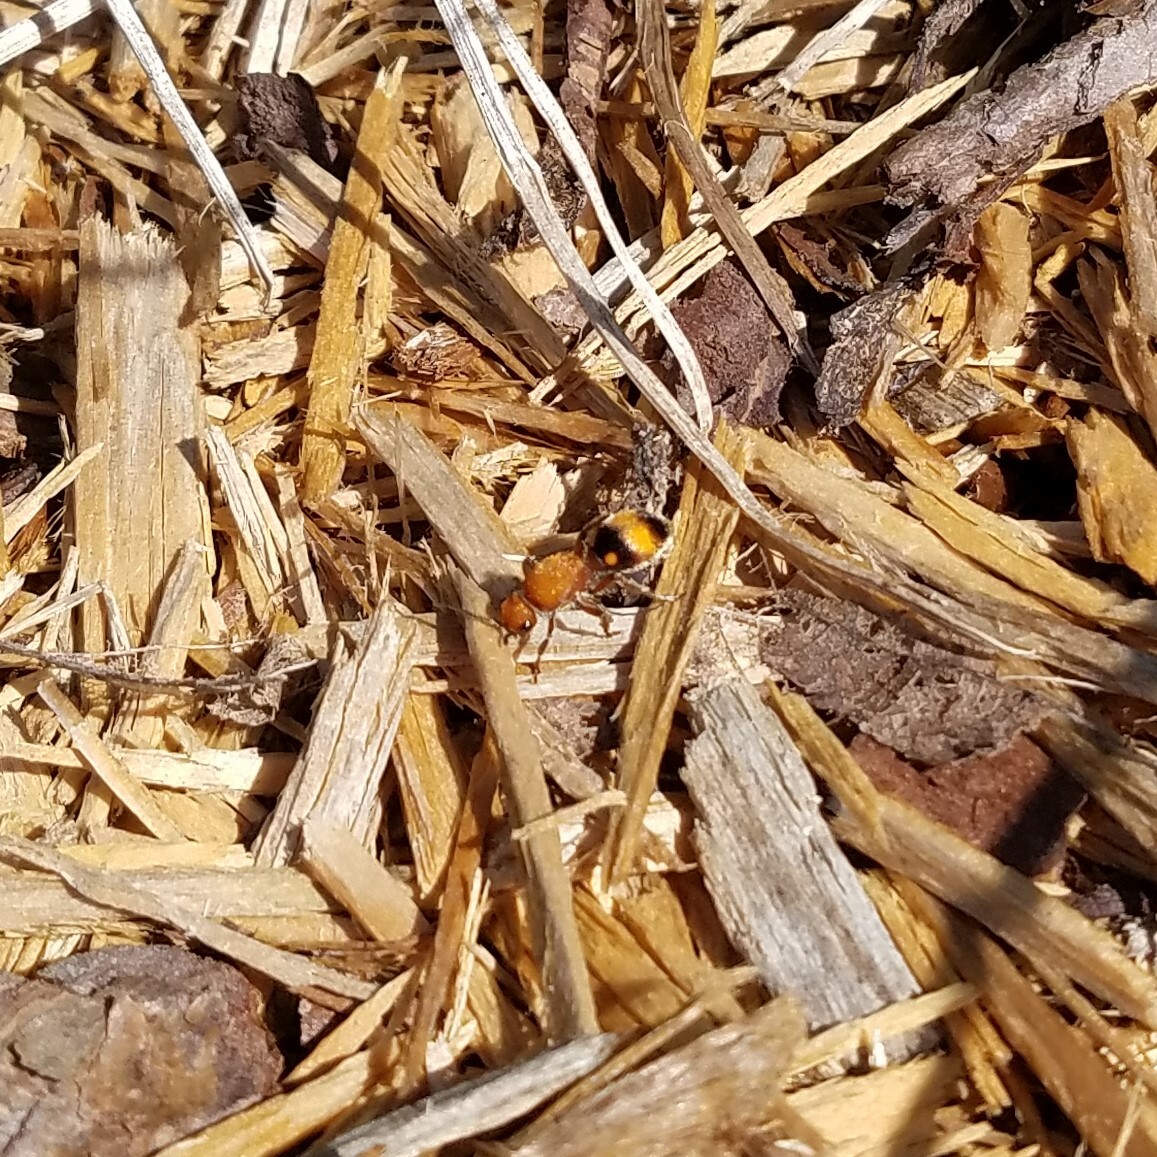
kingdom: Animalia
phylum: Arthropoda
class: Insecta
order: Hymenoptera
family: Mutillidae
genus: Dasymutilla
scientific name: Dasymutilla
